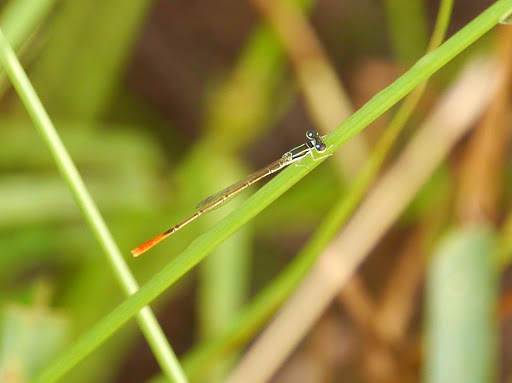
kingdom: Animalia
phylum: Arthropoda
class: Insecta
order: Odonata
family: Coenagrionidae
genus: Agriocnemis
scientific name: Agriocnemis exilis
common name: Little wisp
